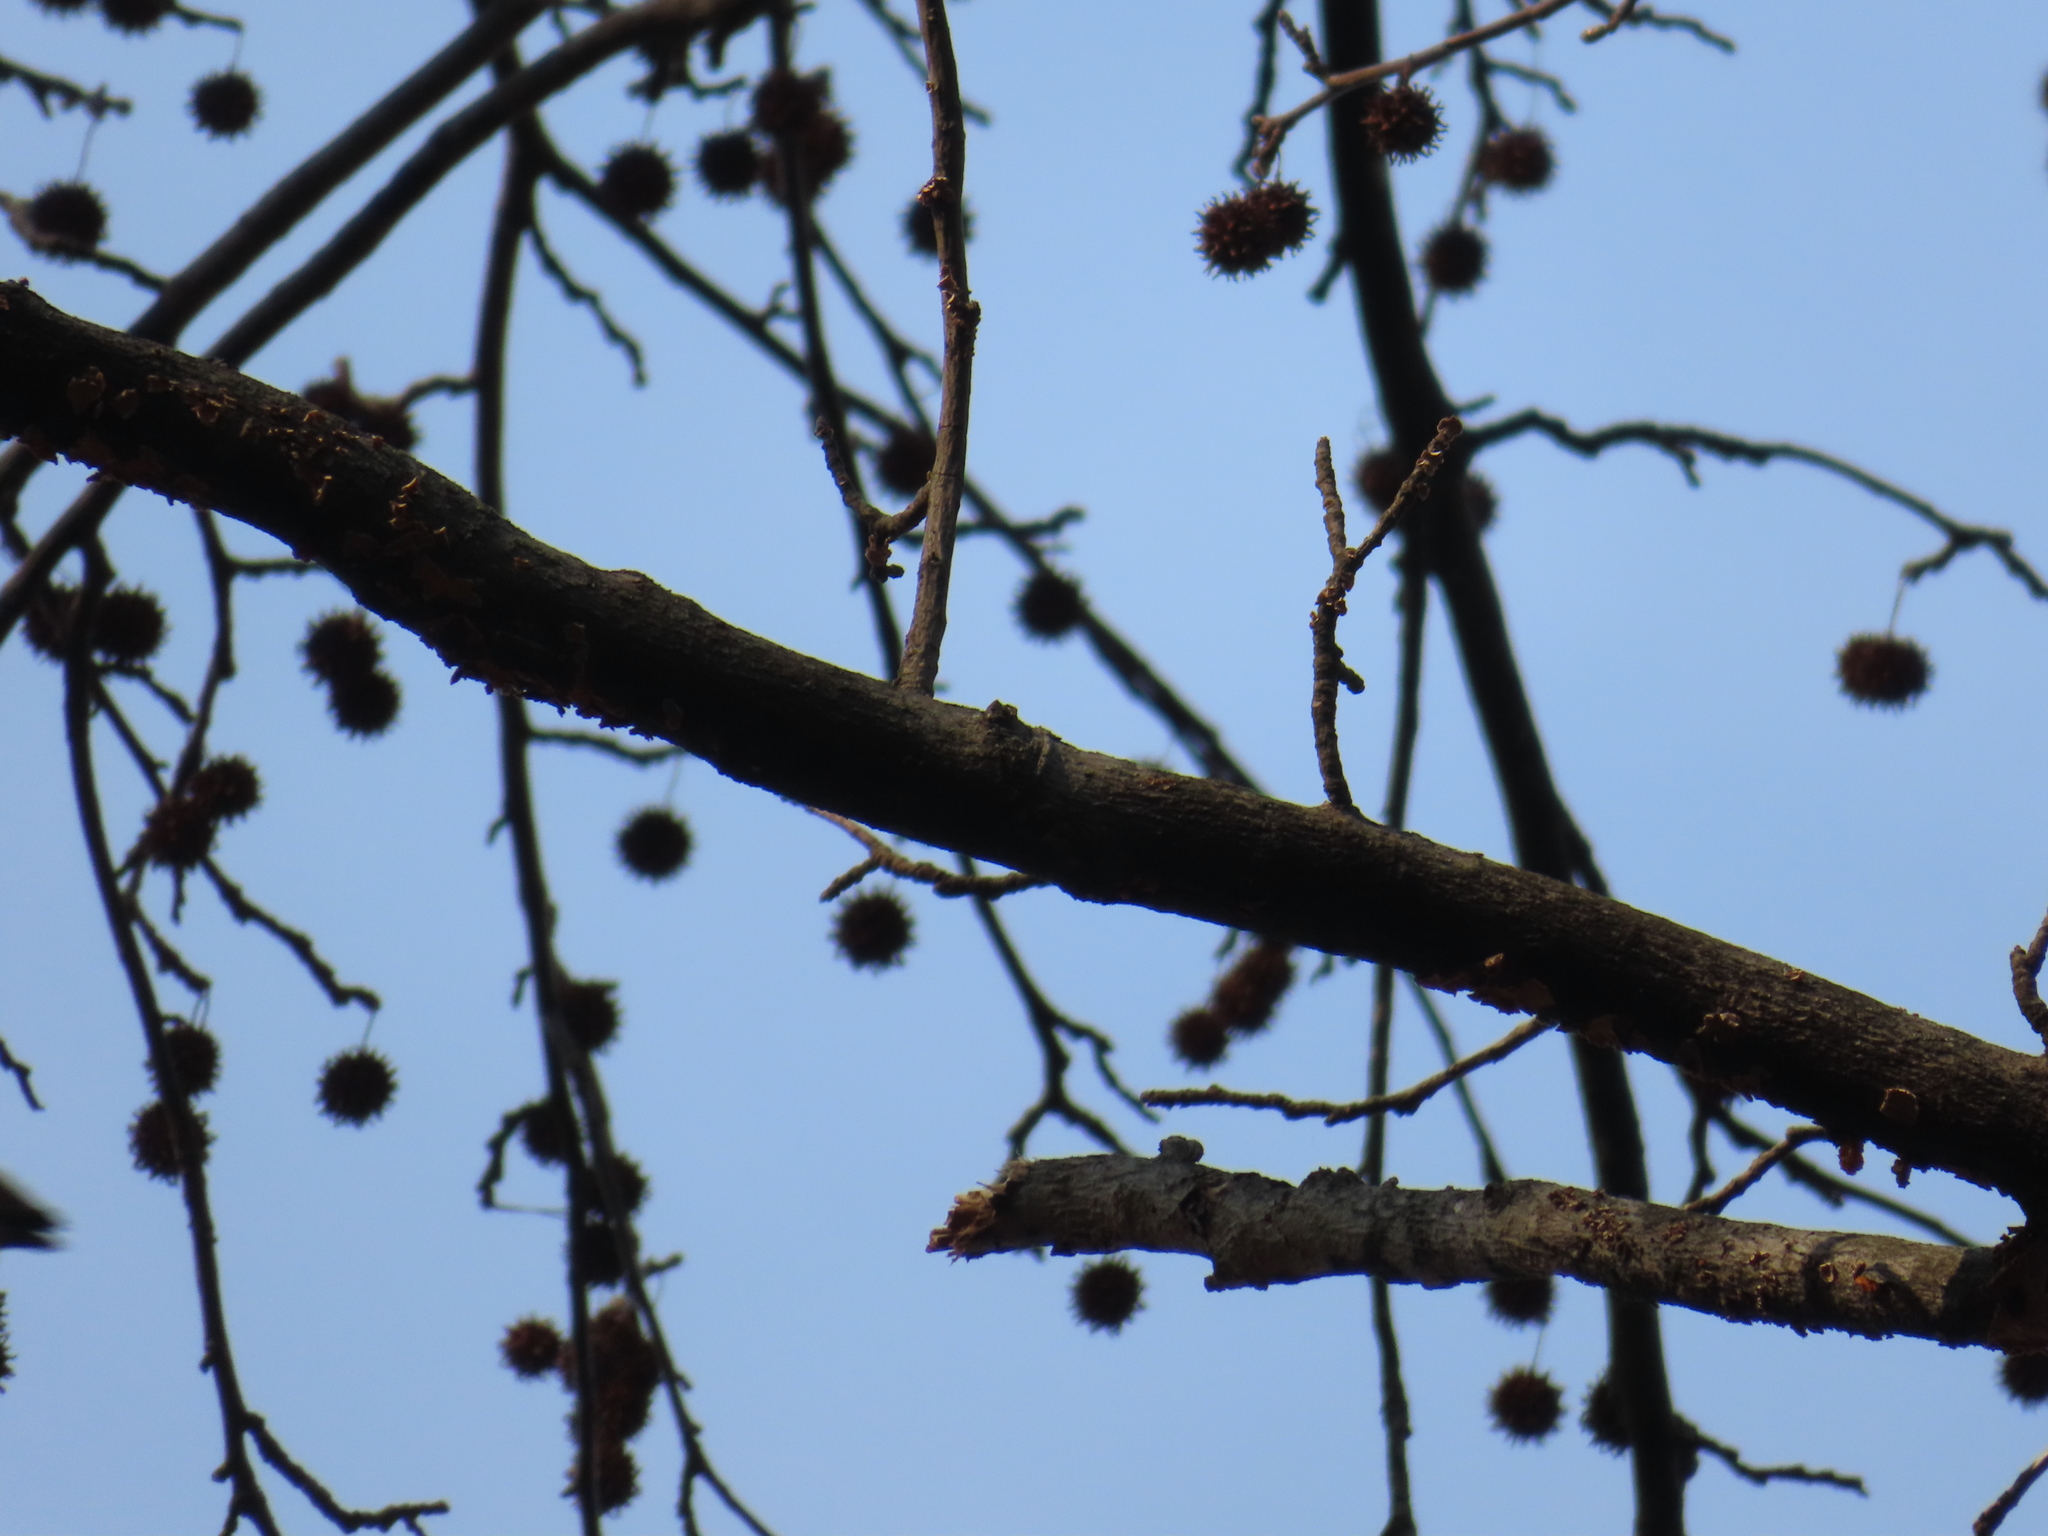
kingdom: Animalia
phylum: Chordata
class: Aves
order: Piciformes
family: Picidae
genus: Leuconotopicus
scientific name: Leuconotopicus villosus
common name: Hairy woodpecker
